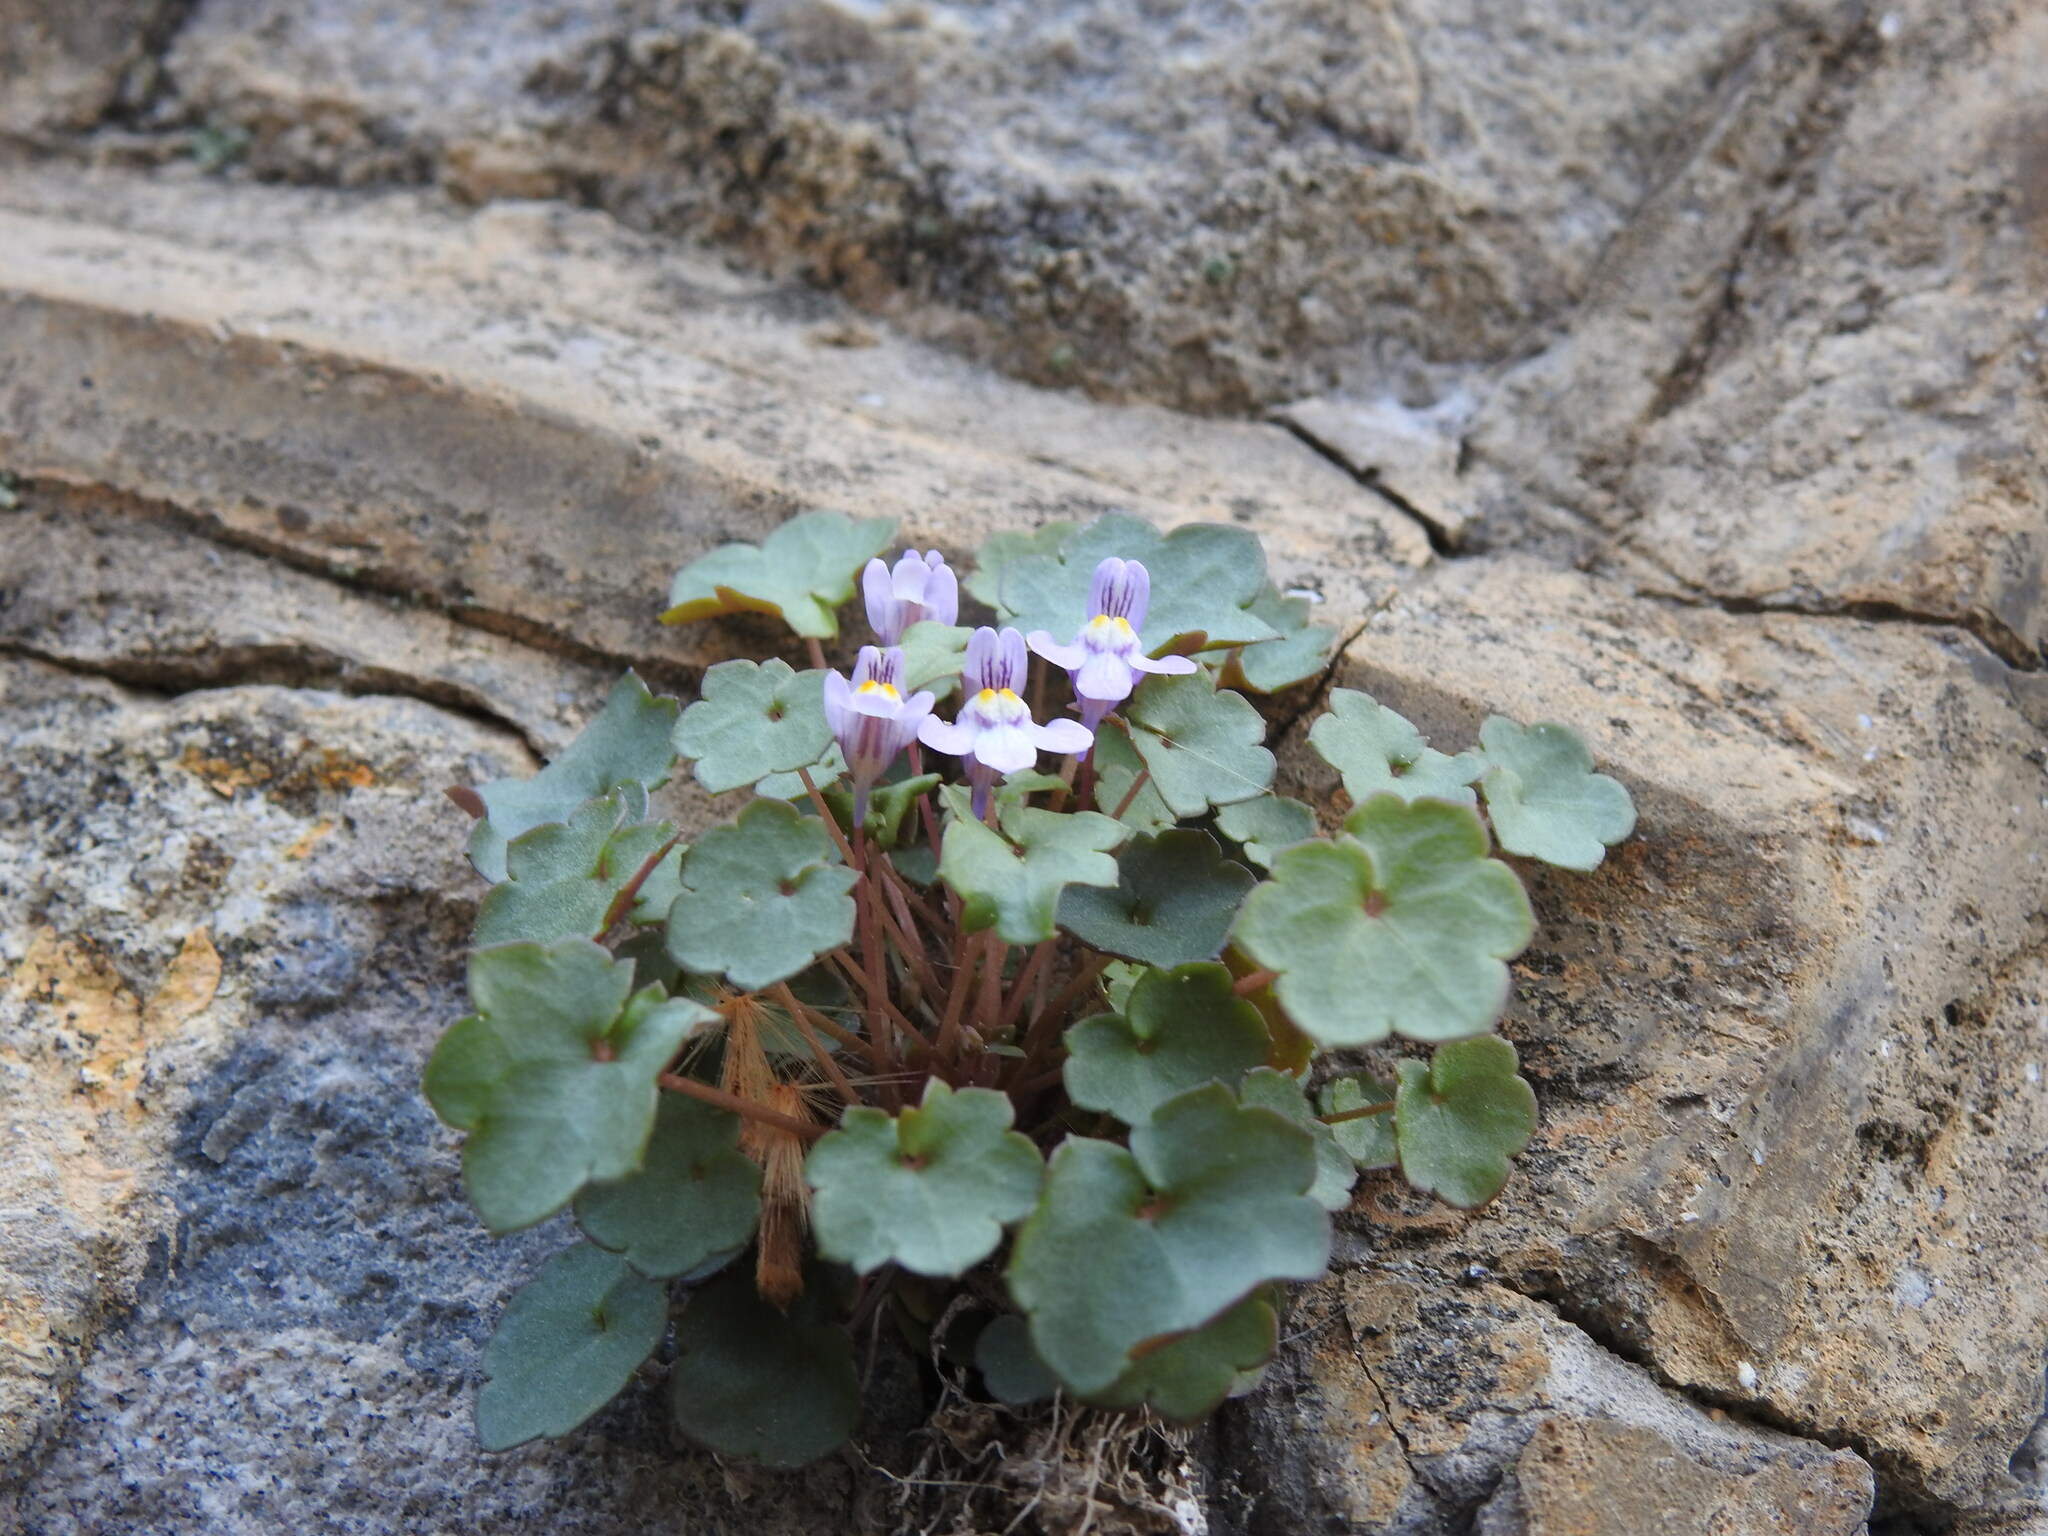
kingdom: Plantae
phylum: Tracheophyta
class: Magnoliopsida
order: Lamiales
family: Plantaginaceae
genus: Cymbalaria
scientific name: Cymbalaria muralis
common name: Ivy-leaved toadflax
